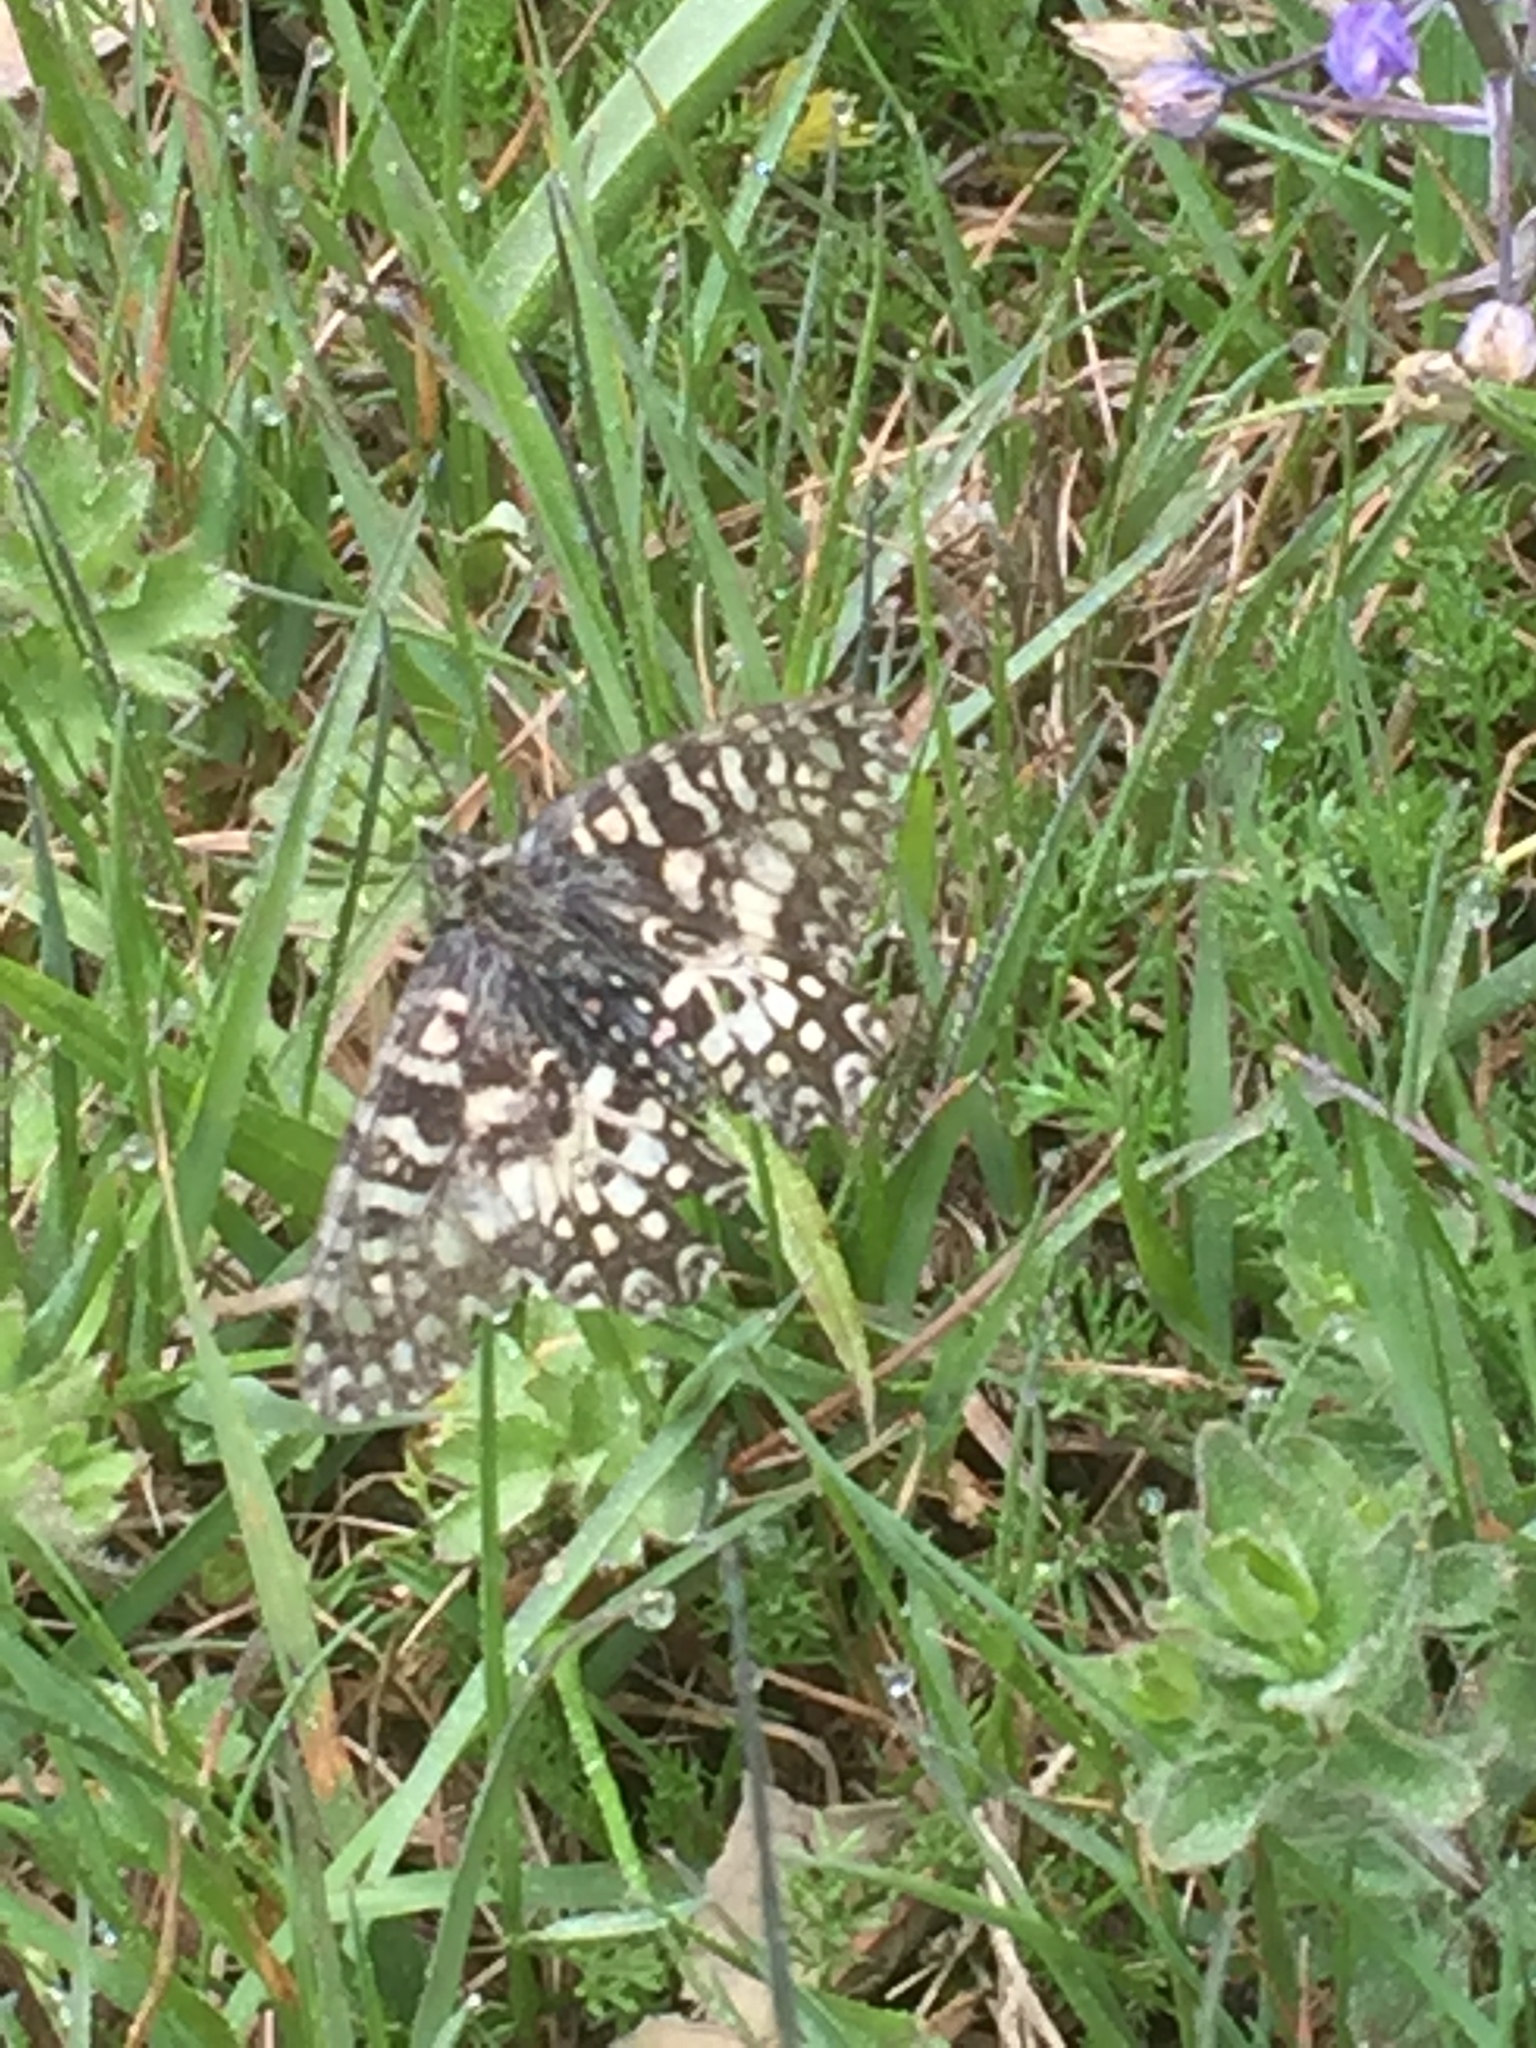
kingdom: Animalia
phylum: Arthropoda
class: Insecta
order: Lepidoptera
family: Papilionidae
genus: Zerynthia
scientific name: Zerynthia rumina
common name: Spanish festoon
